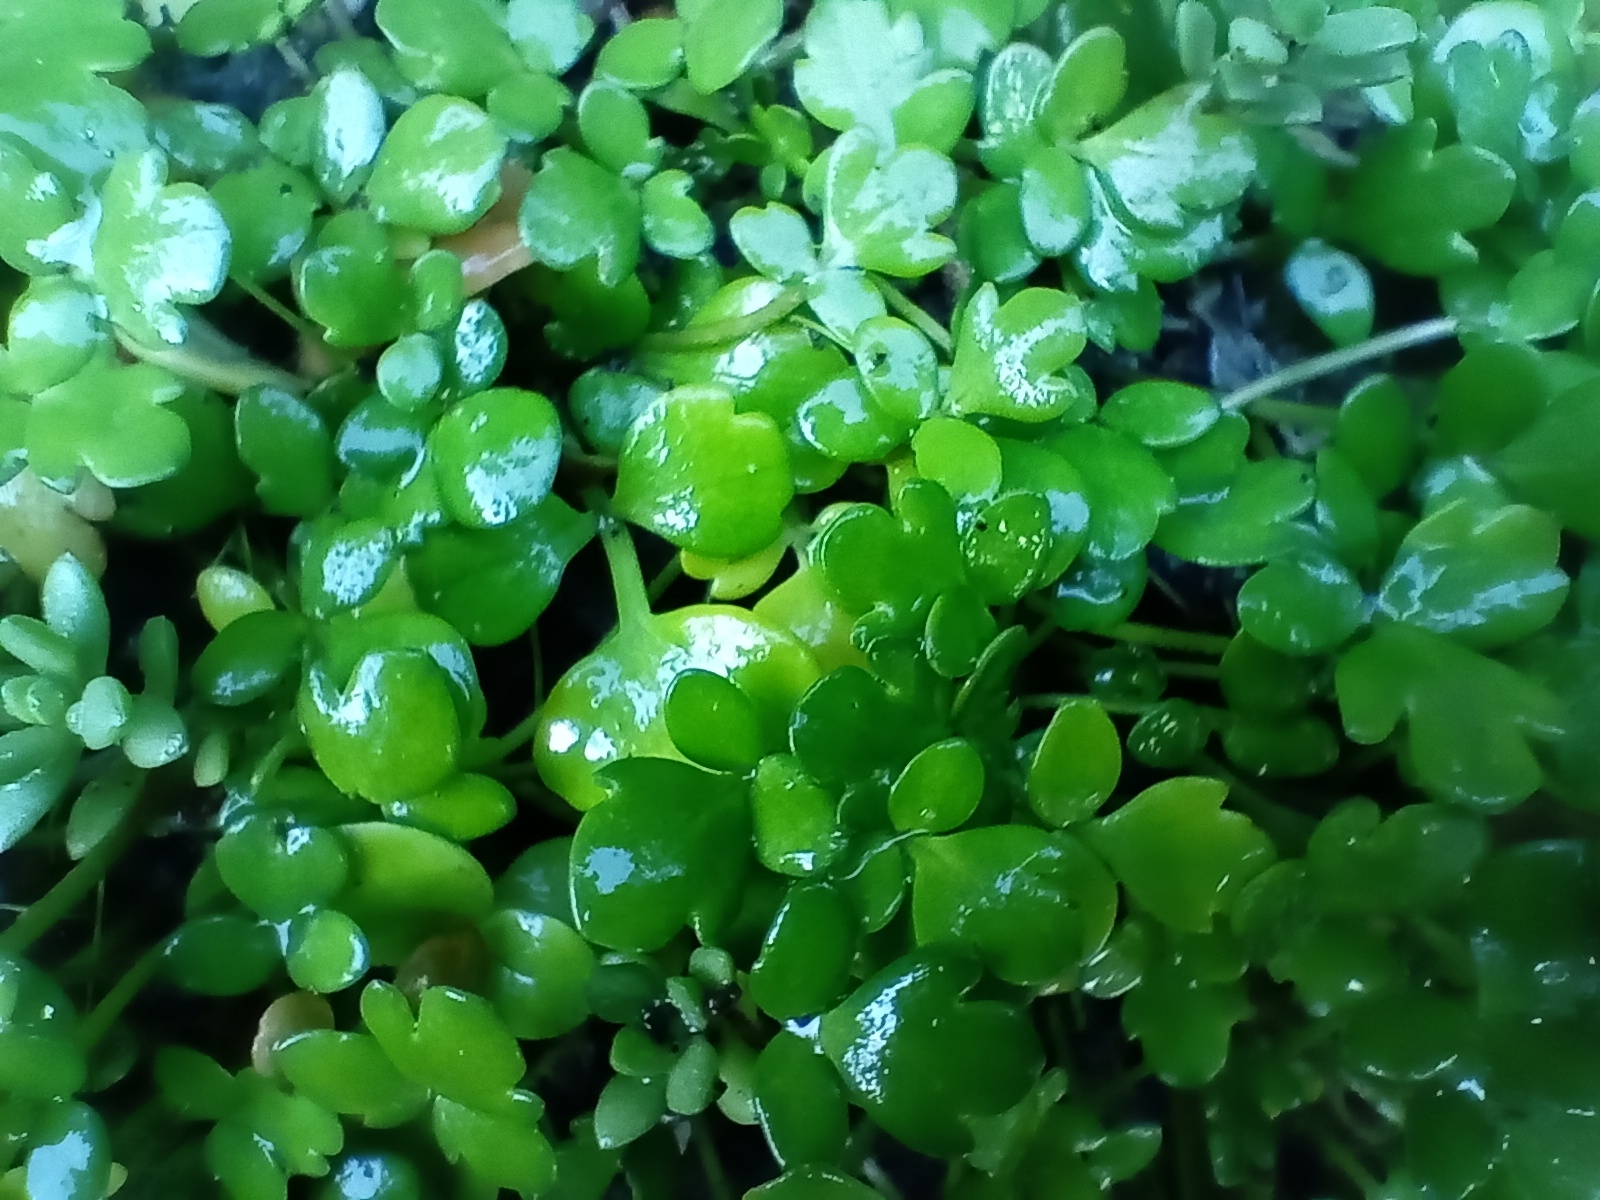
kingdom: Plantae
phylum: Tracheophyta
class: Magnoliopsida
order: Ranunculales
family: Ranunculaceae
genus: Ranunculus
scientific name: Ranunculus acaulis
